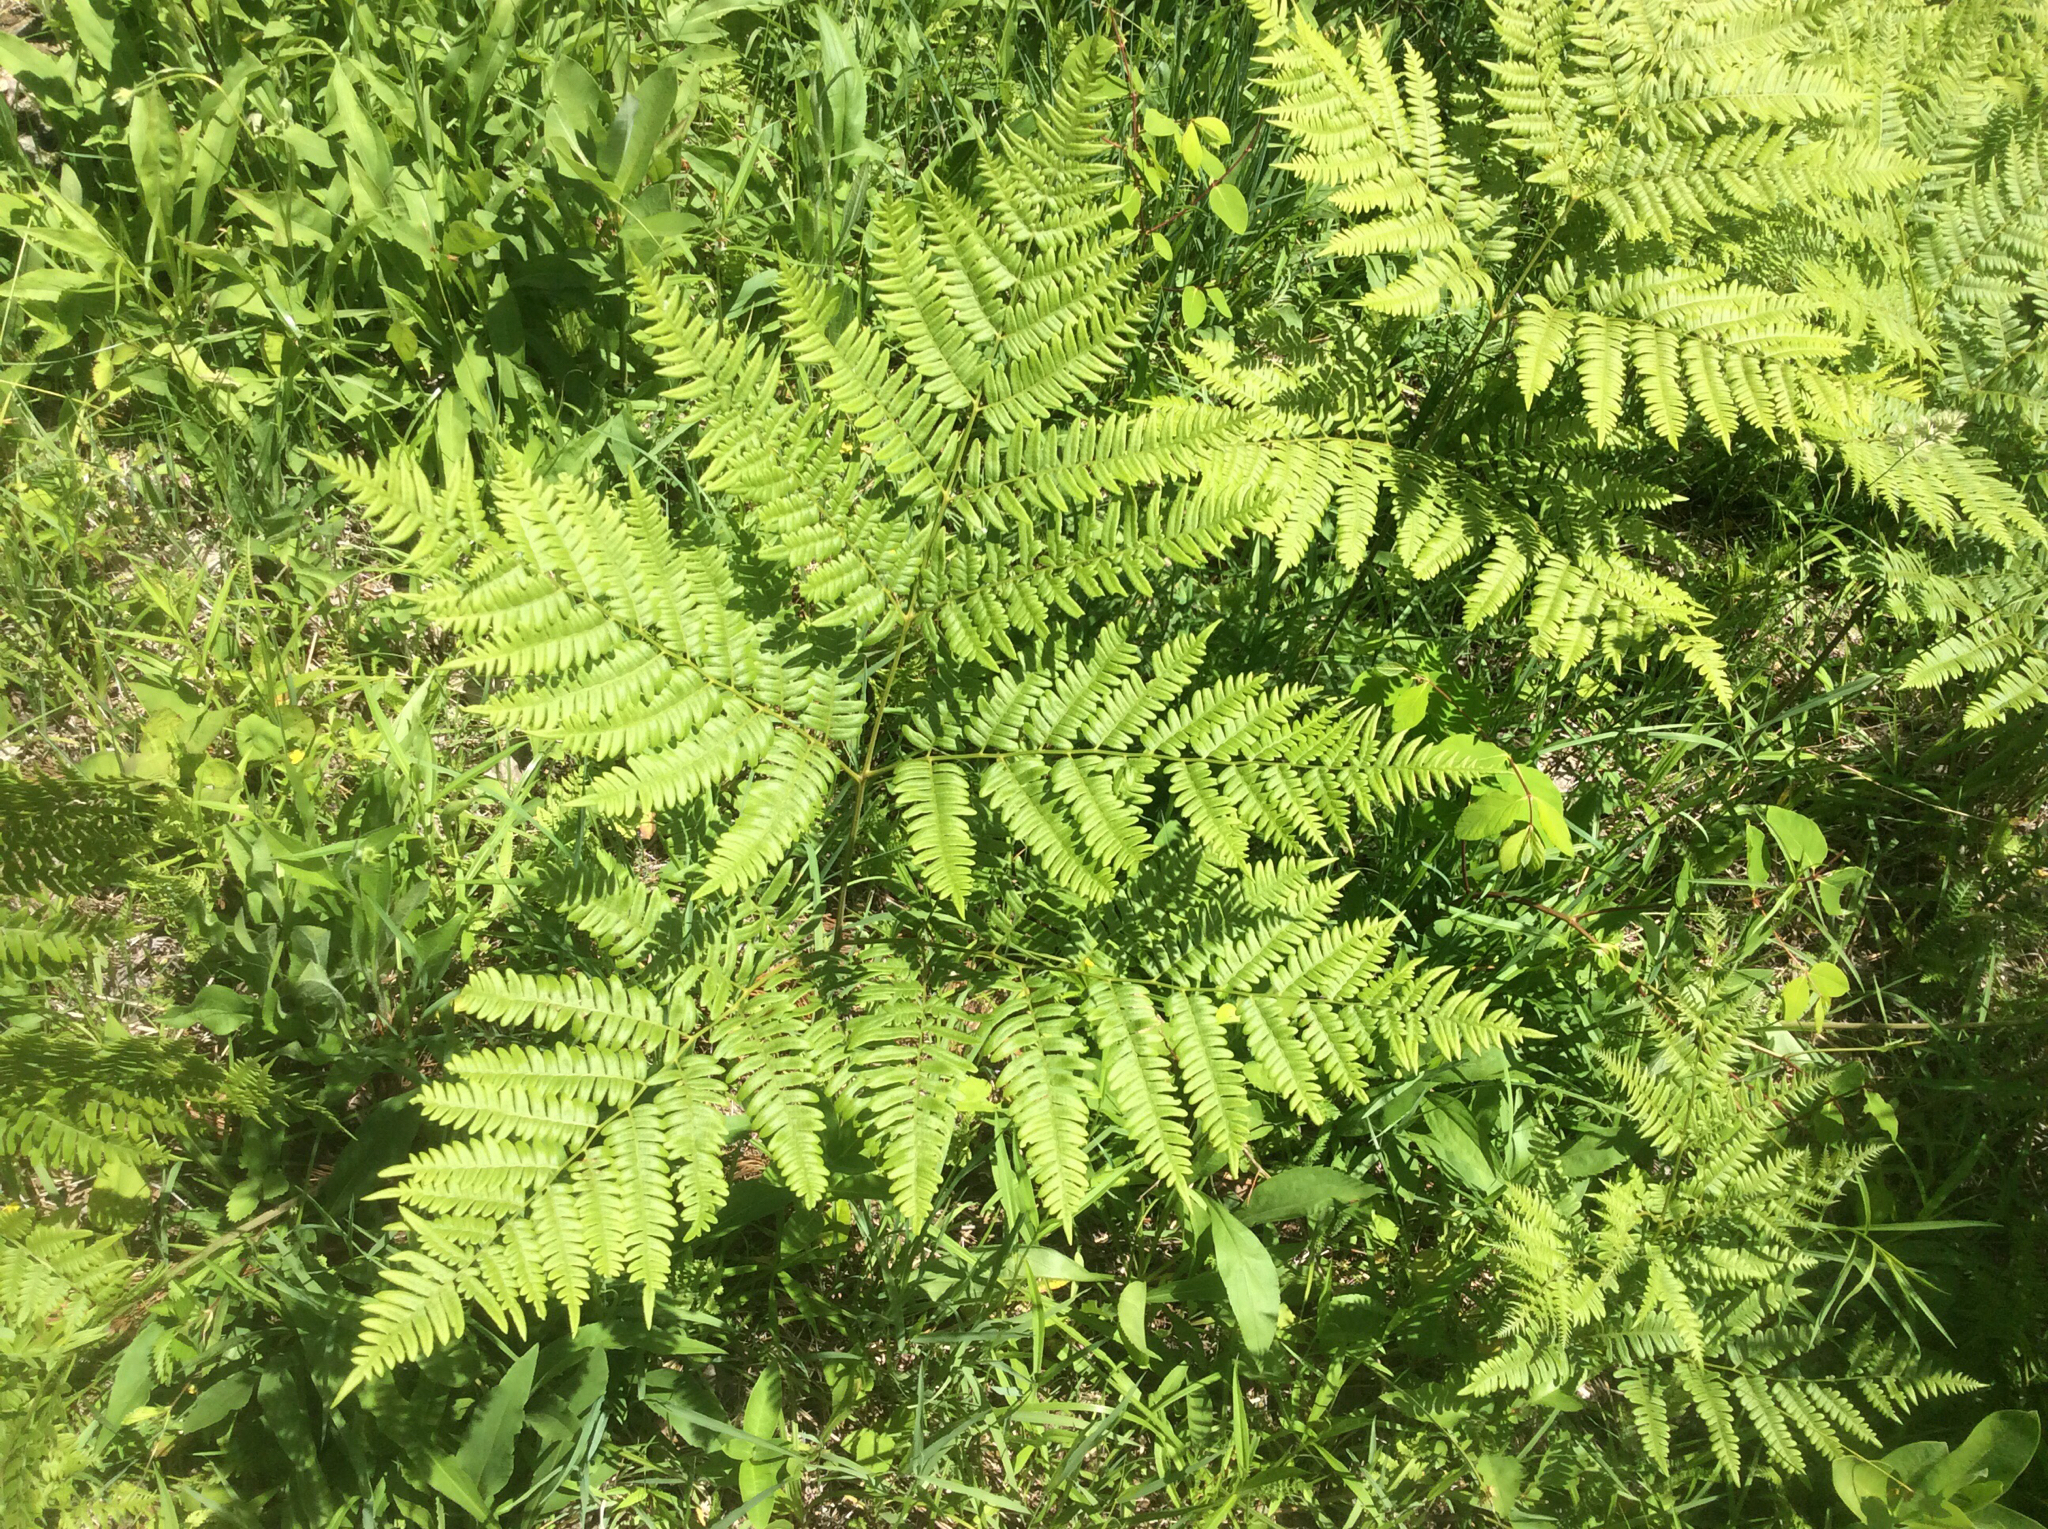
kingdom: Plantae
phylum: Tracheophyta
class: Polypodiopsida
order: Polypodiales
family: Dennstaedtiaceae
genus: Pteridium
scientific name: Pteridium aquilinum
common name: Bracken
